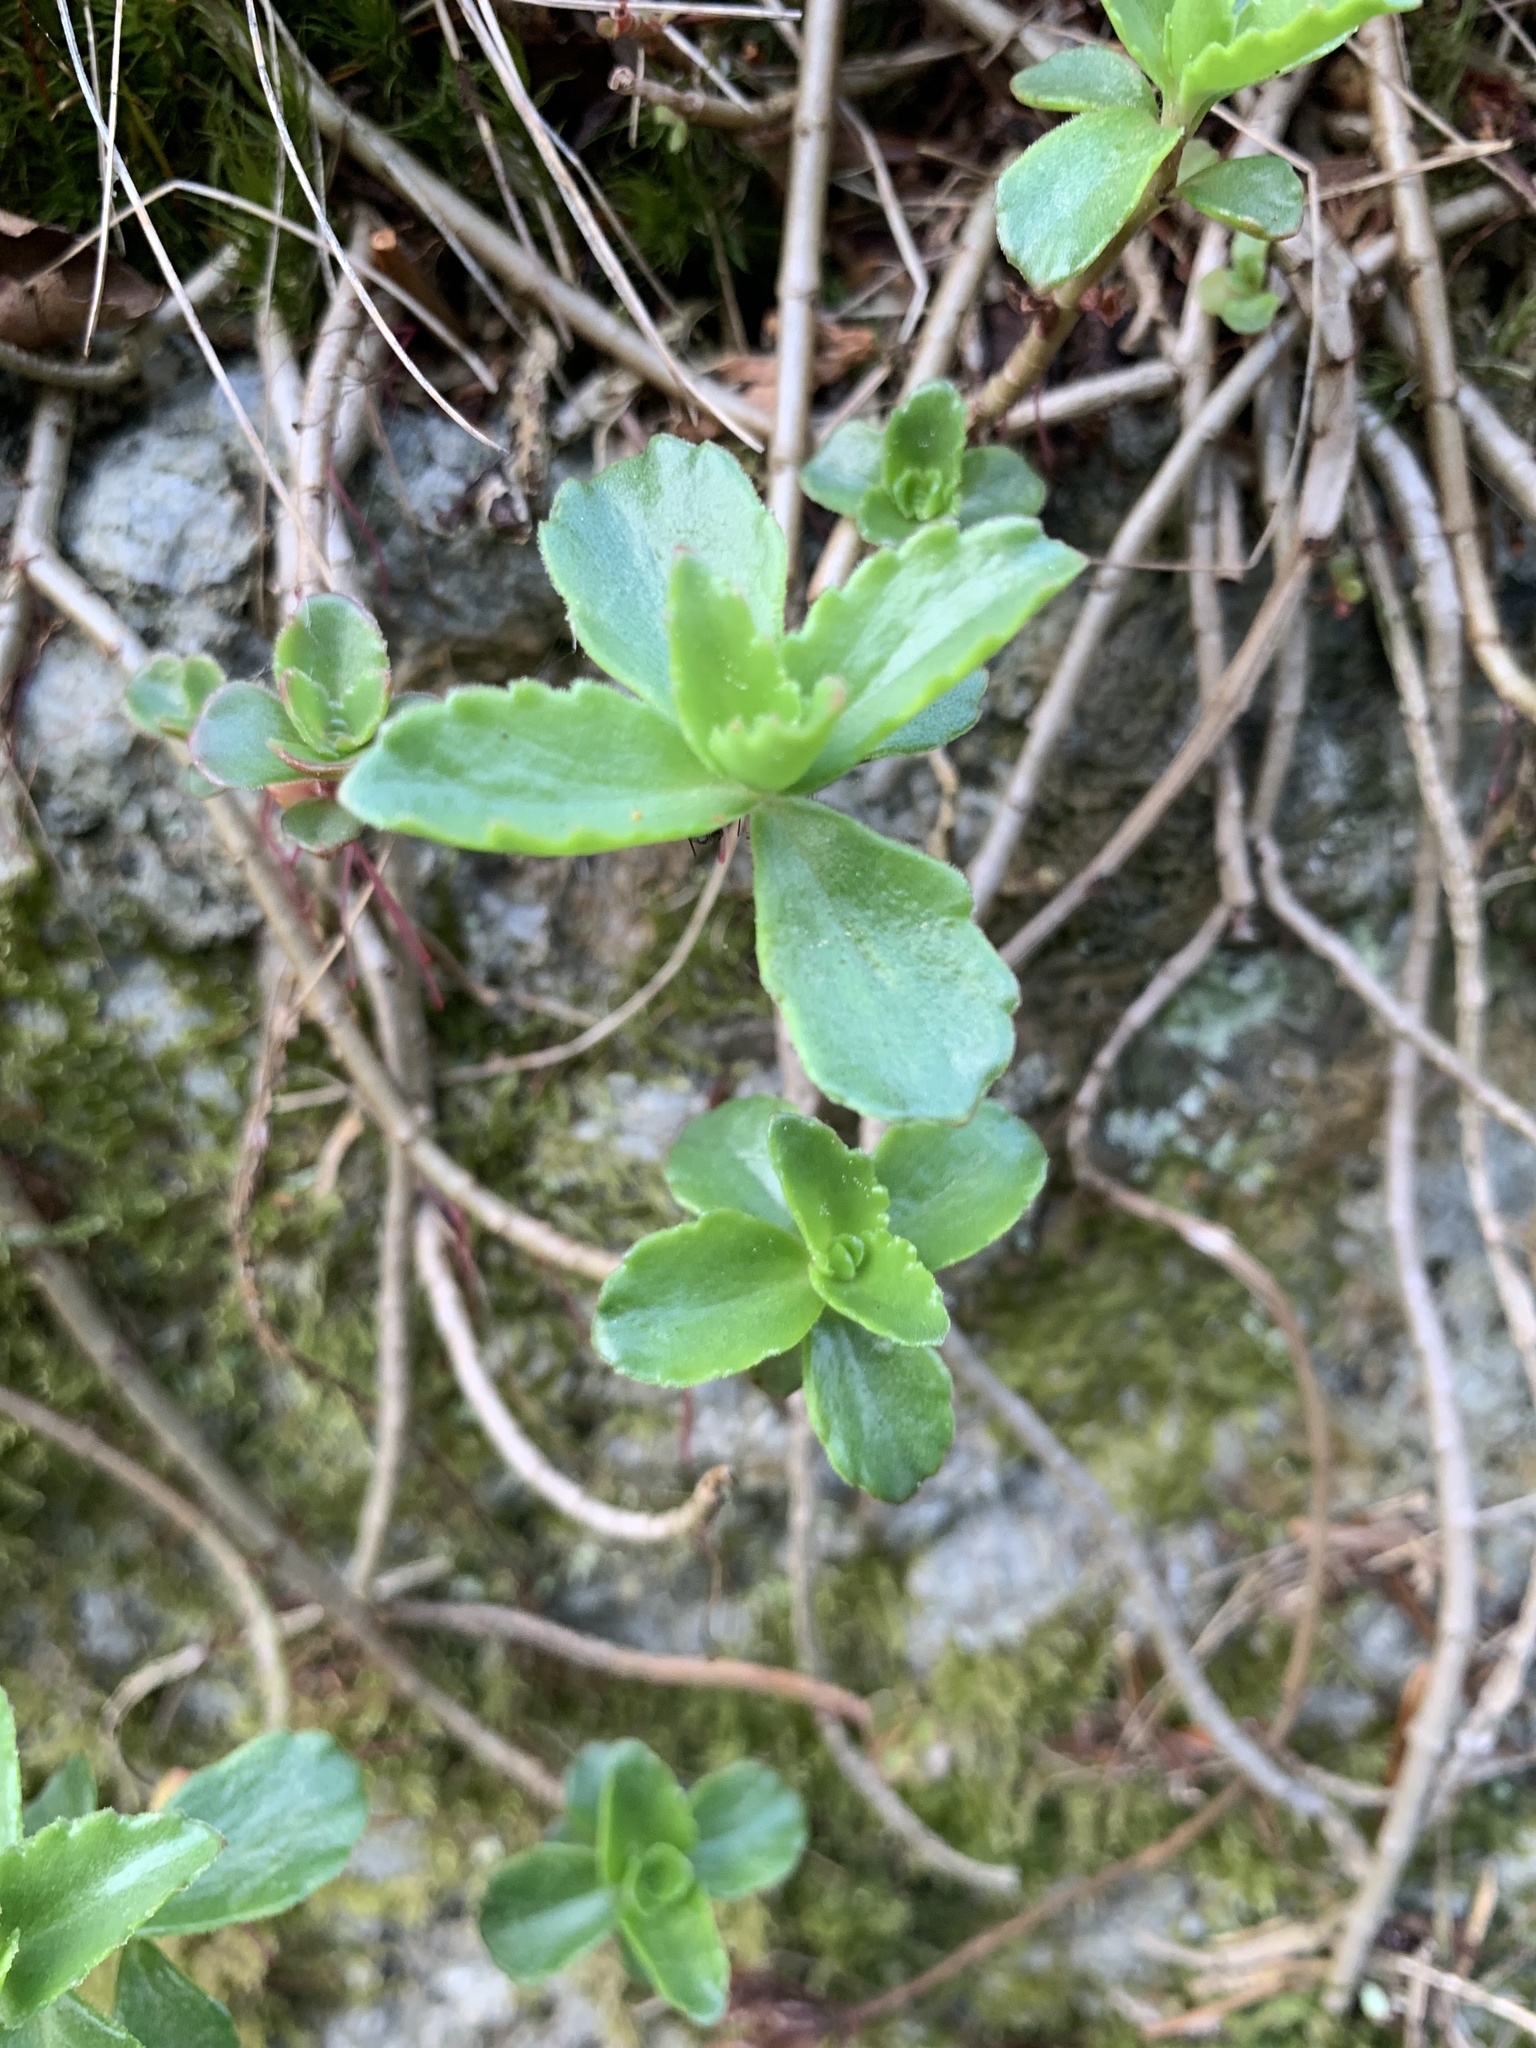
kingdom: Plantae
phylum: Tracheophyta
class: Magnoliopsida
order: Saxifragales
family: Crassulaceae
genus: Phedimus
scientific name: Phedimus spurius
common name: Caucasian stonecrop
